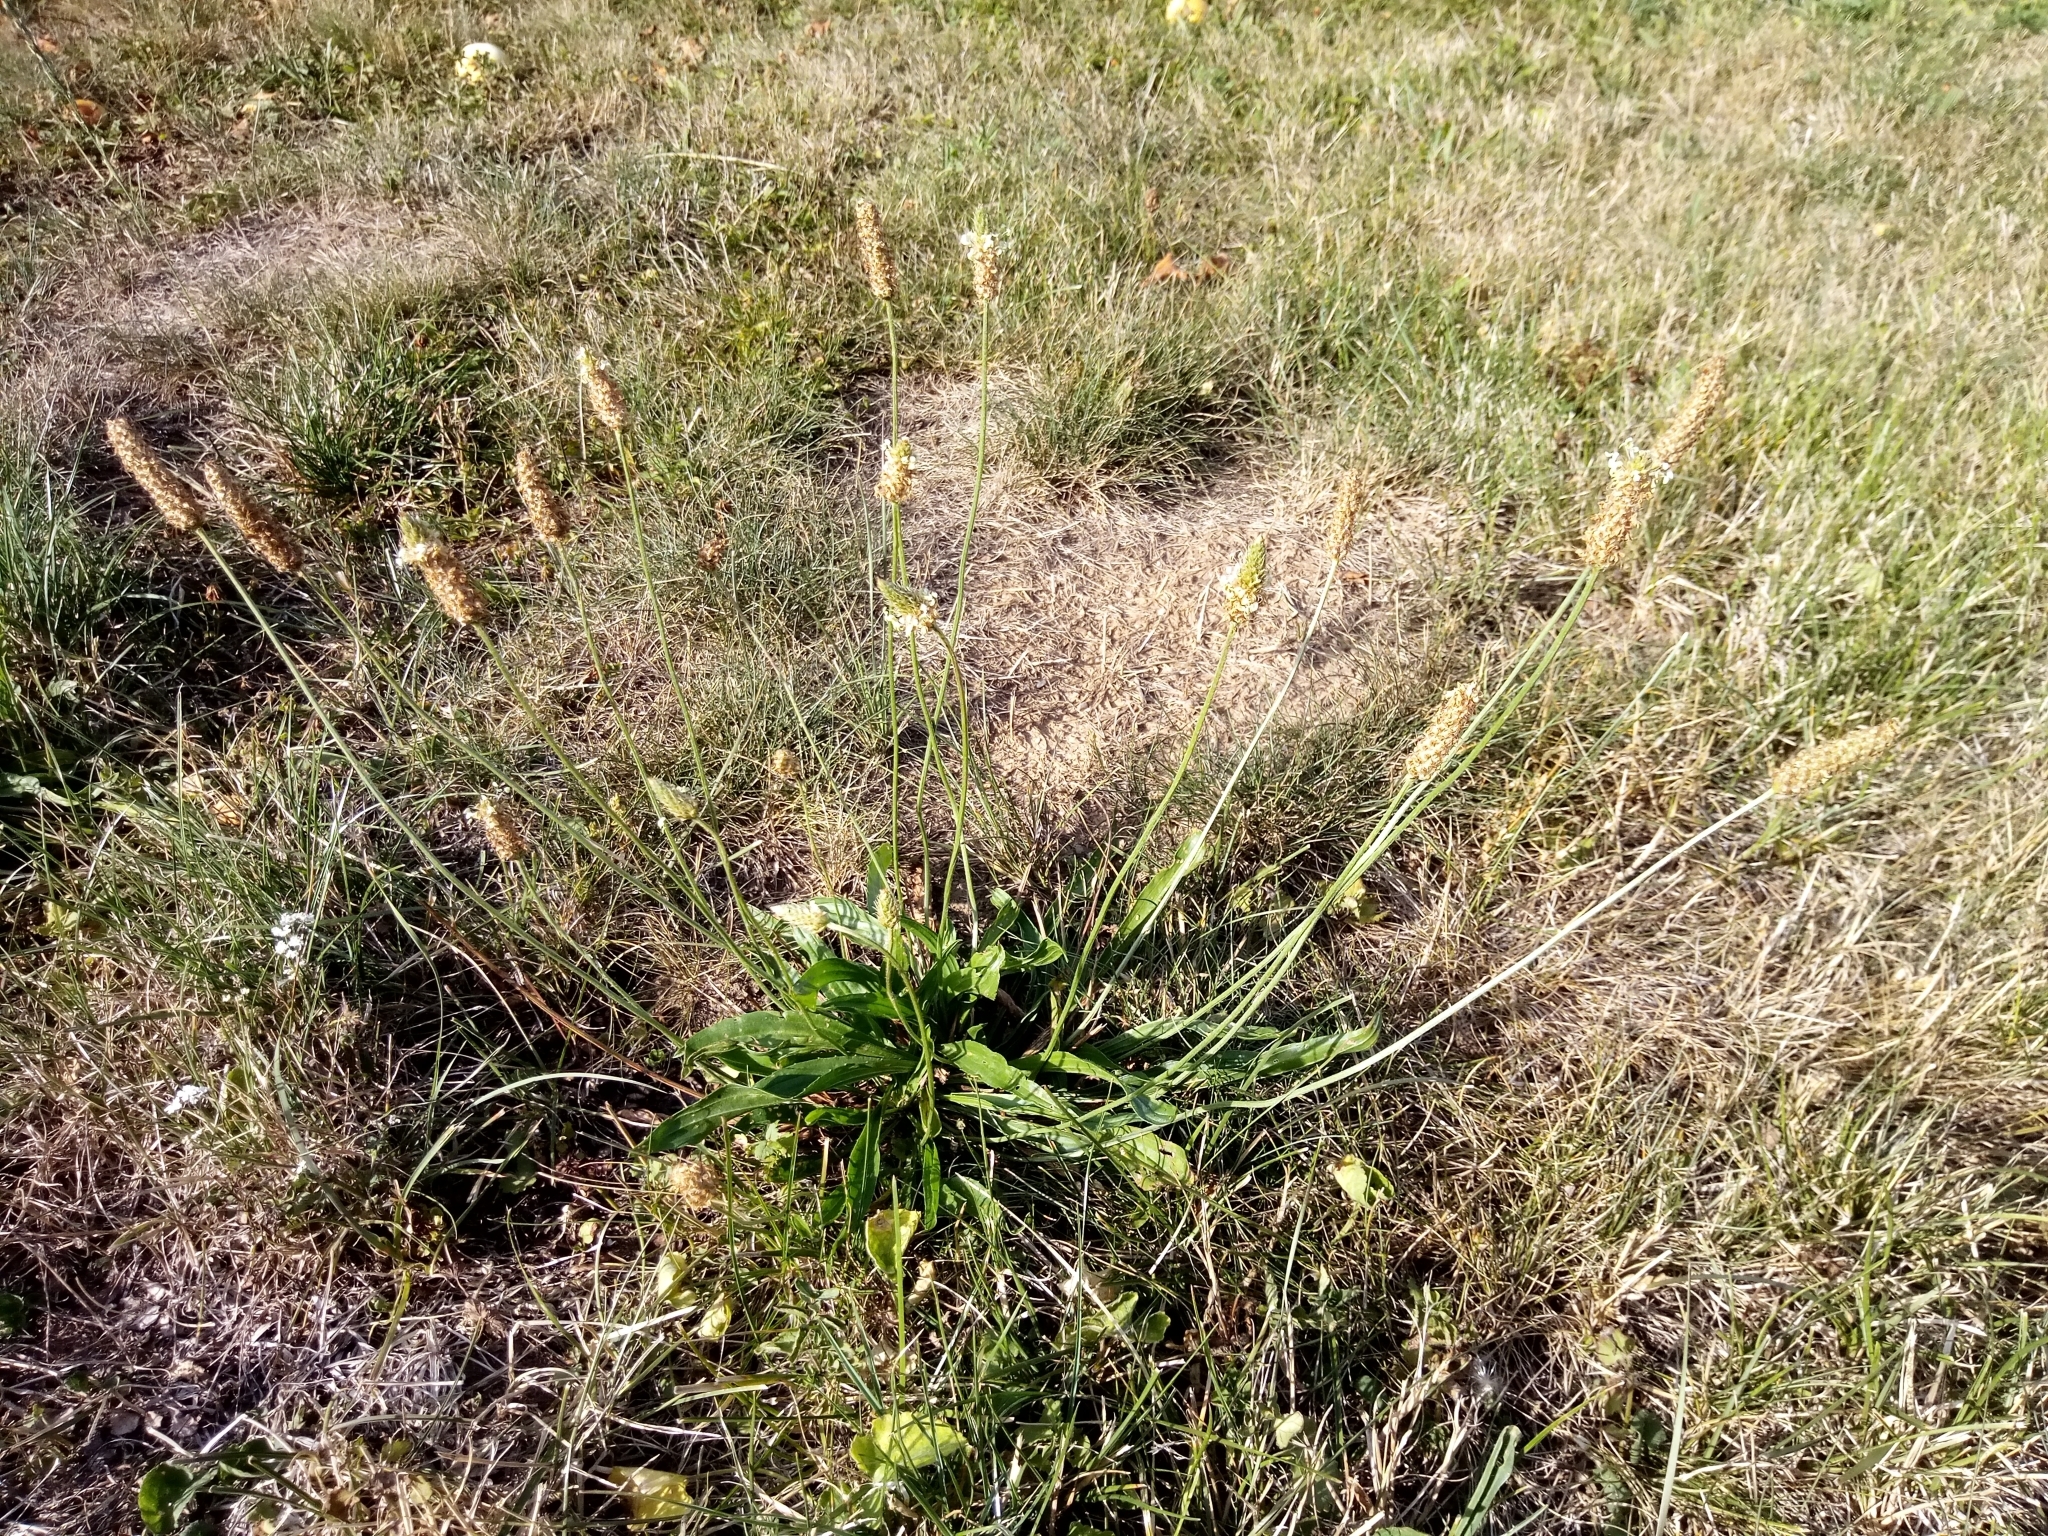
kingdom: Plantae
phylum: Tracheophyta
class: Magnoliopsida
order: Lamiales
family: Plantaginaceae
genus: Plantago
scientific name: Plantago lanceolata
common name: Ribwort plantain
